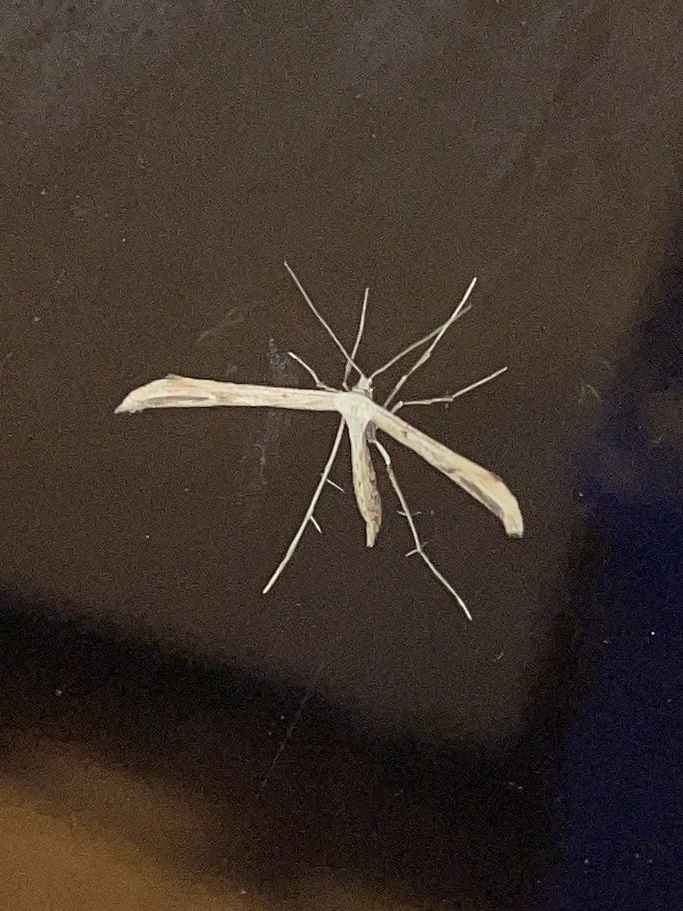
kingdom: Animalia
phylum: Arthropoda
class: Insecta
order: Lepidoptera
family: Pterophoridae
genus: Emmelina
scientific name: Emmelina monodactyla
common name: Common plume
